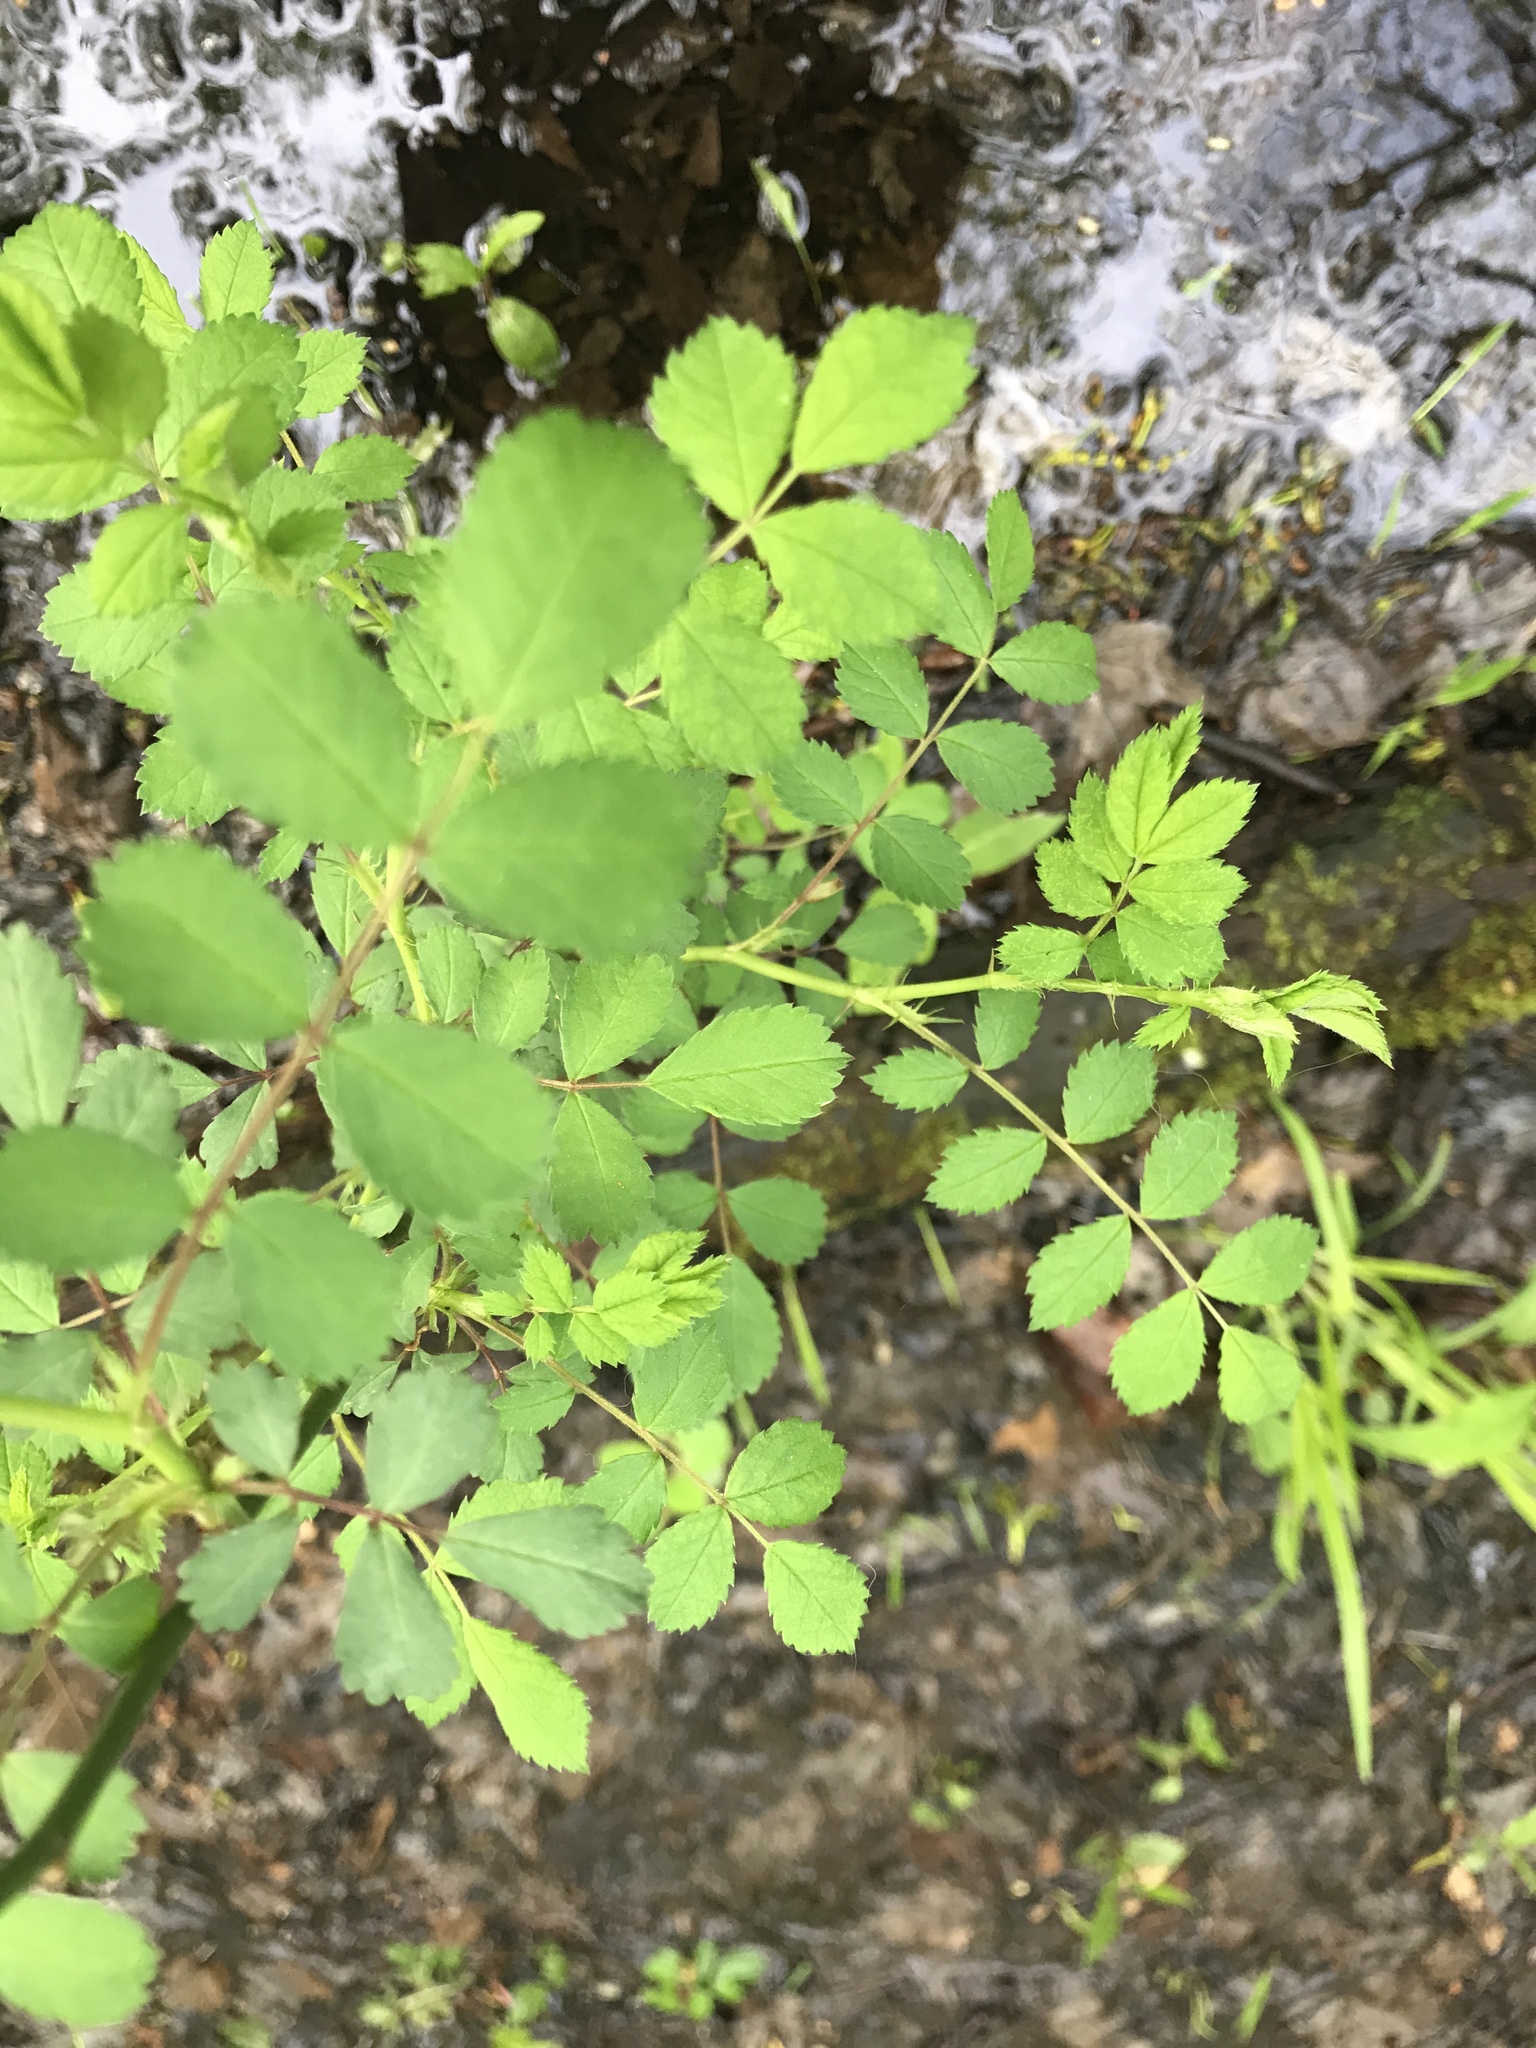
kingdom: Plantae
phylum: Tracheophyta
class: Magnoliopsida
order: Rosales
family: Rosaceae
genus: Rosa
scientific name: Rosa multiflora
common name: Multiflora rose
